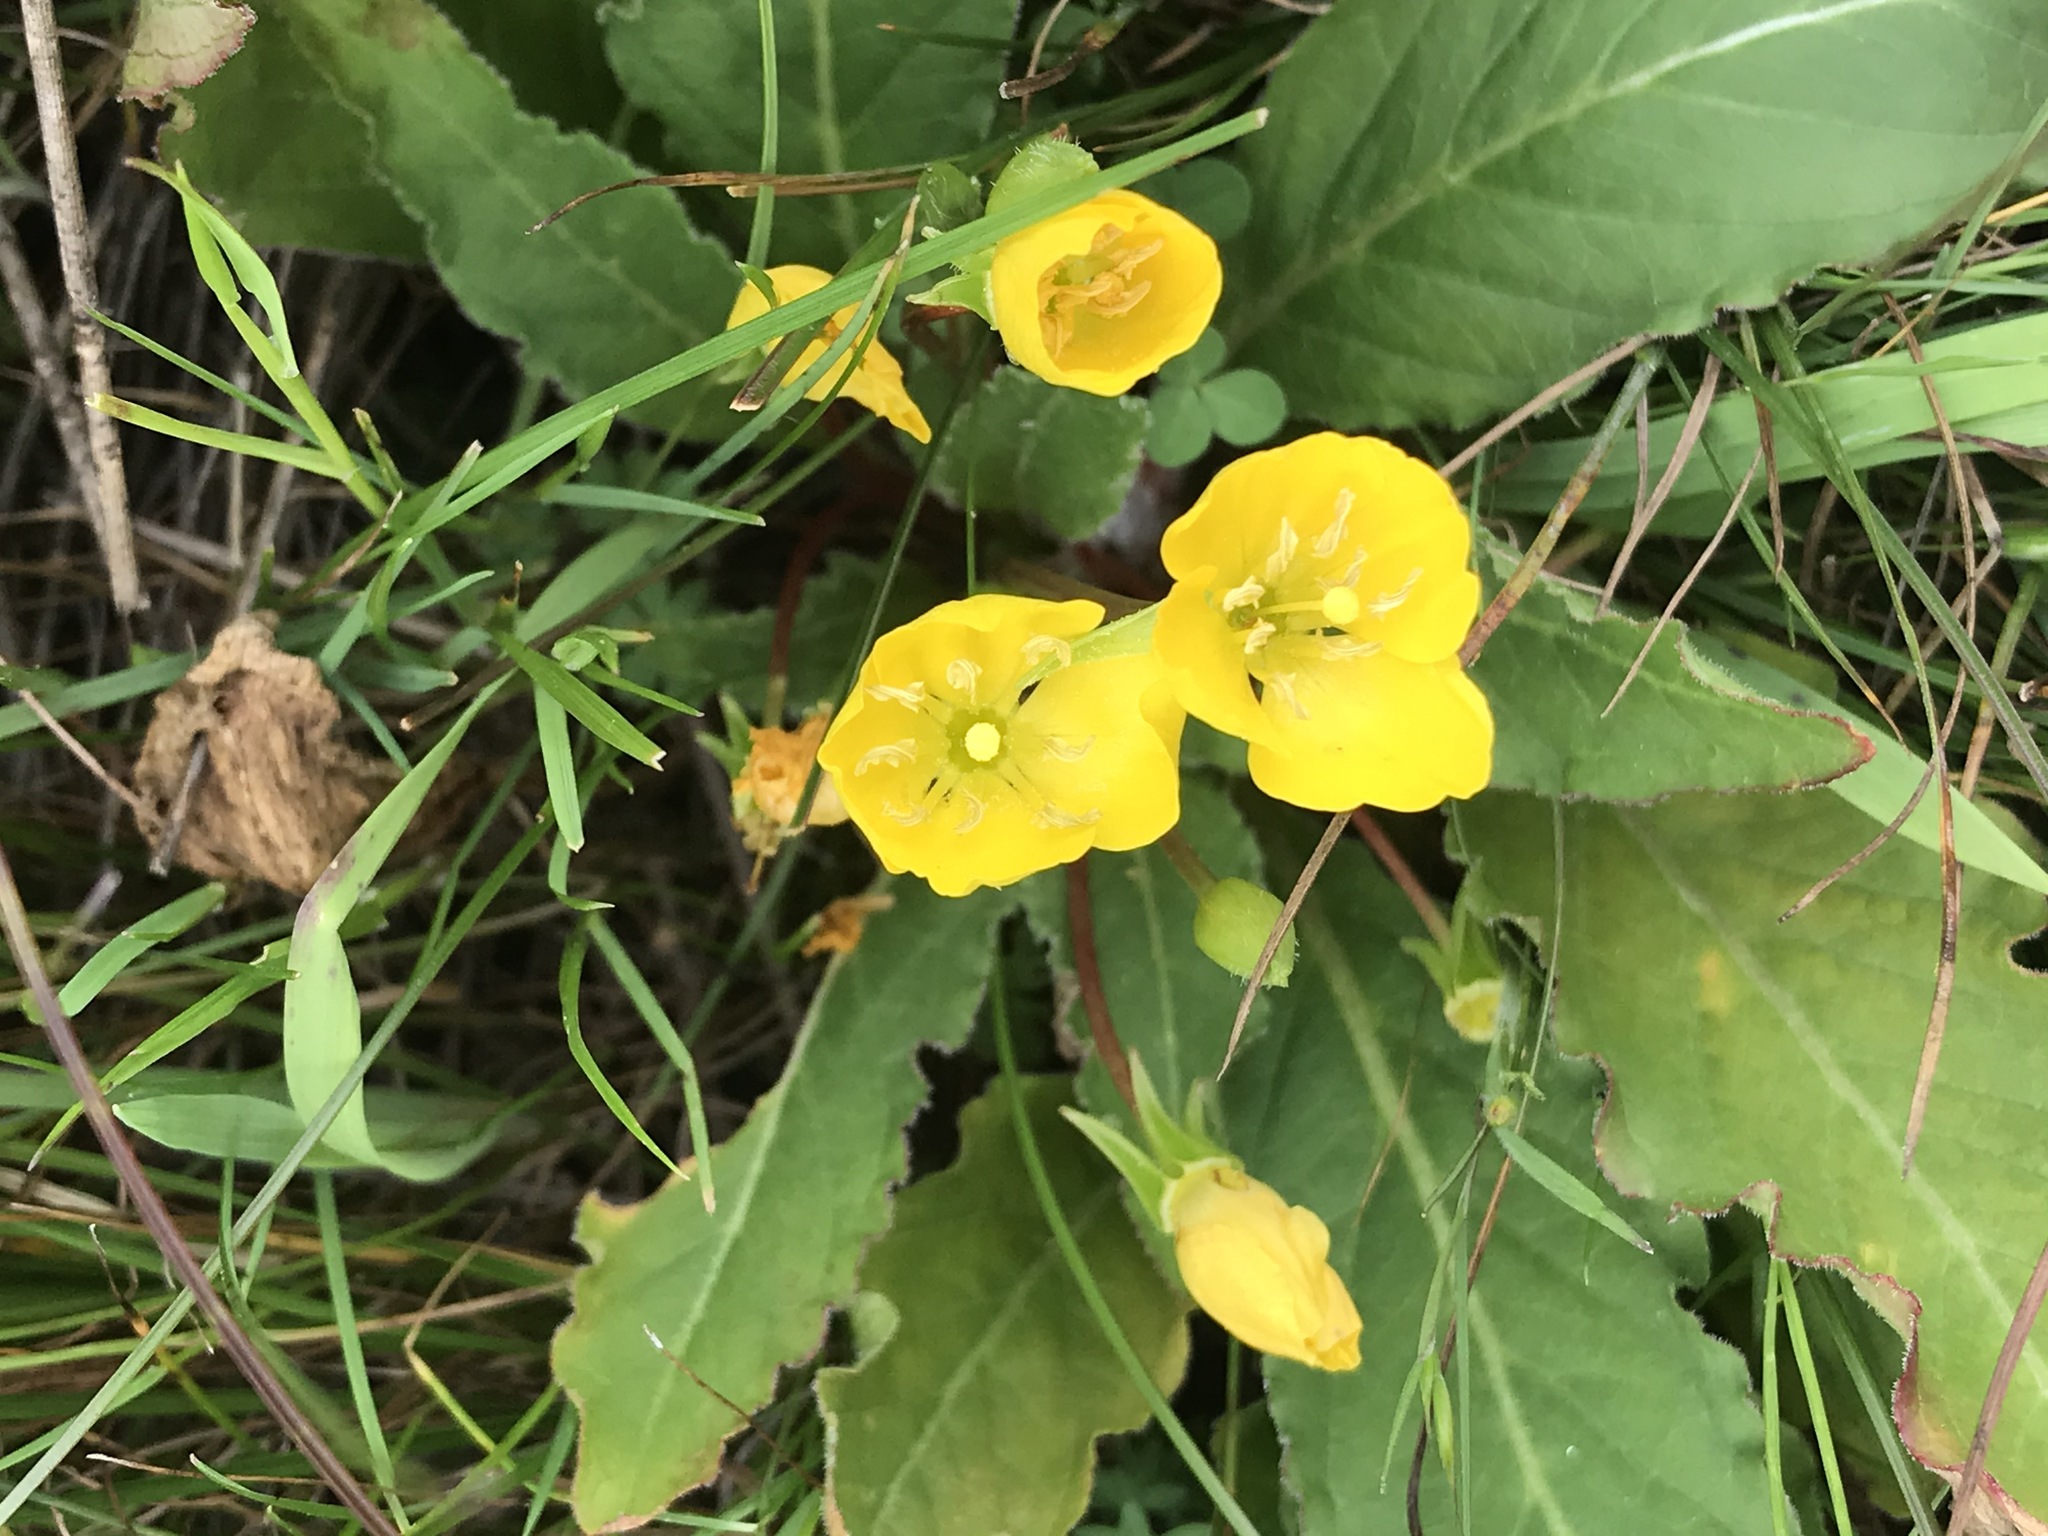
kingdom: Plantae
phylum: Tracheophyta
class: Magnoliopsida
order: Myrtales
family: Onagraceae
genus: Taraxia
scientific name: Taraxia ovata
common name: Goldeneggs
